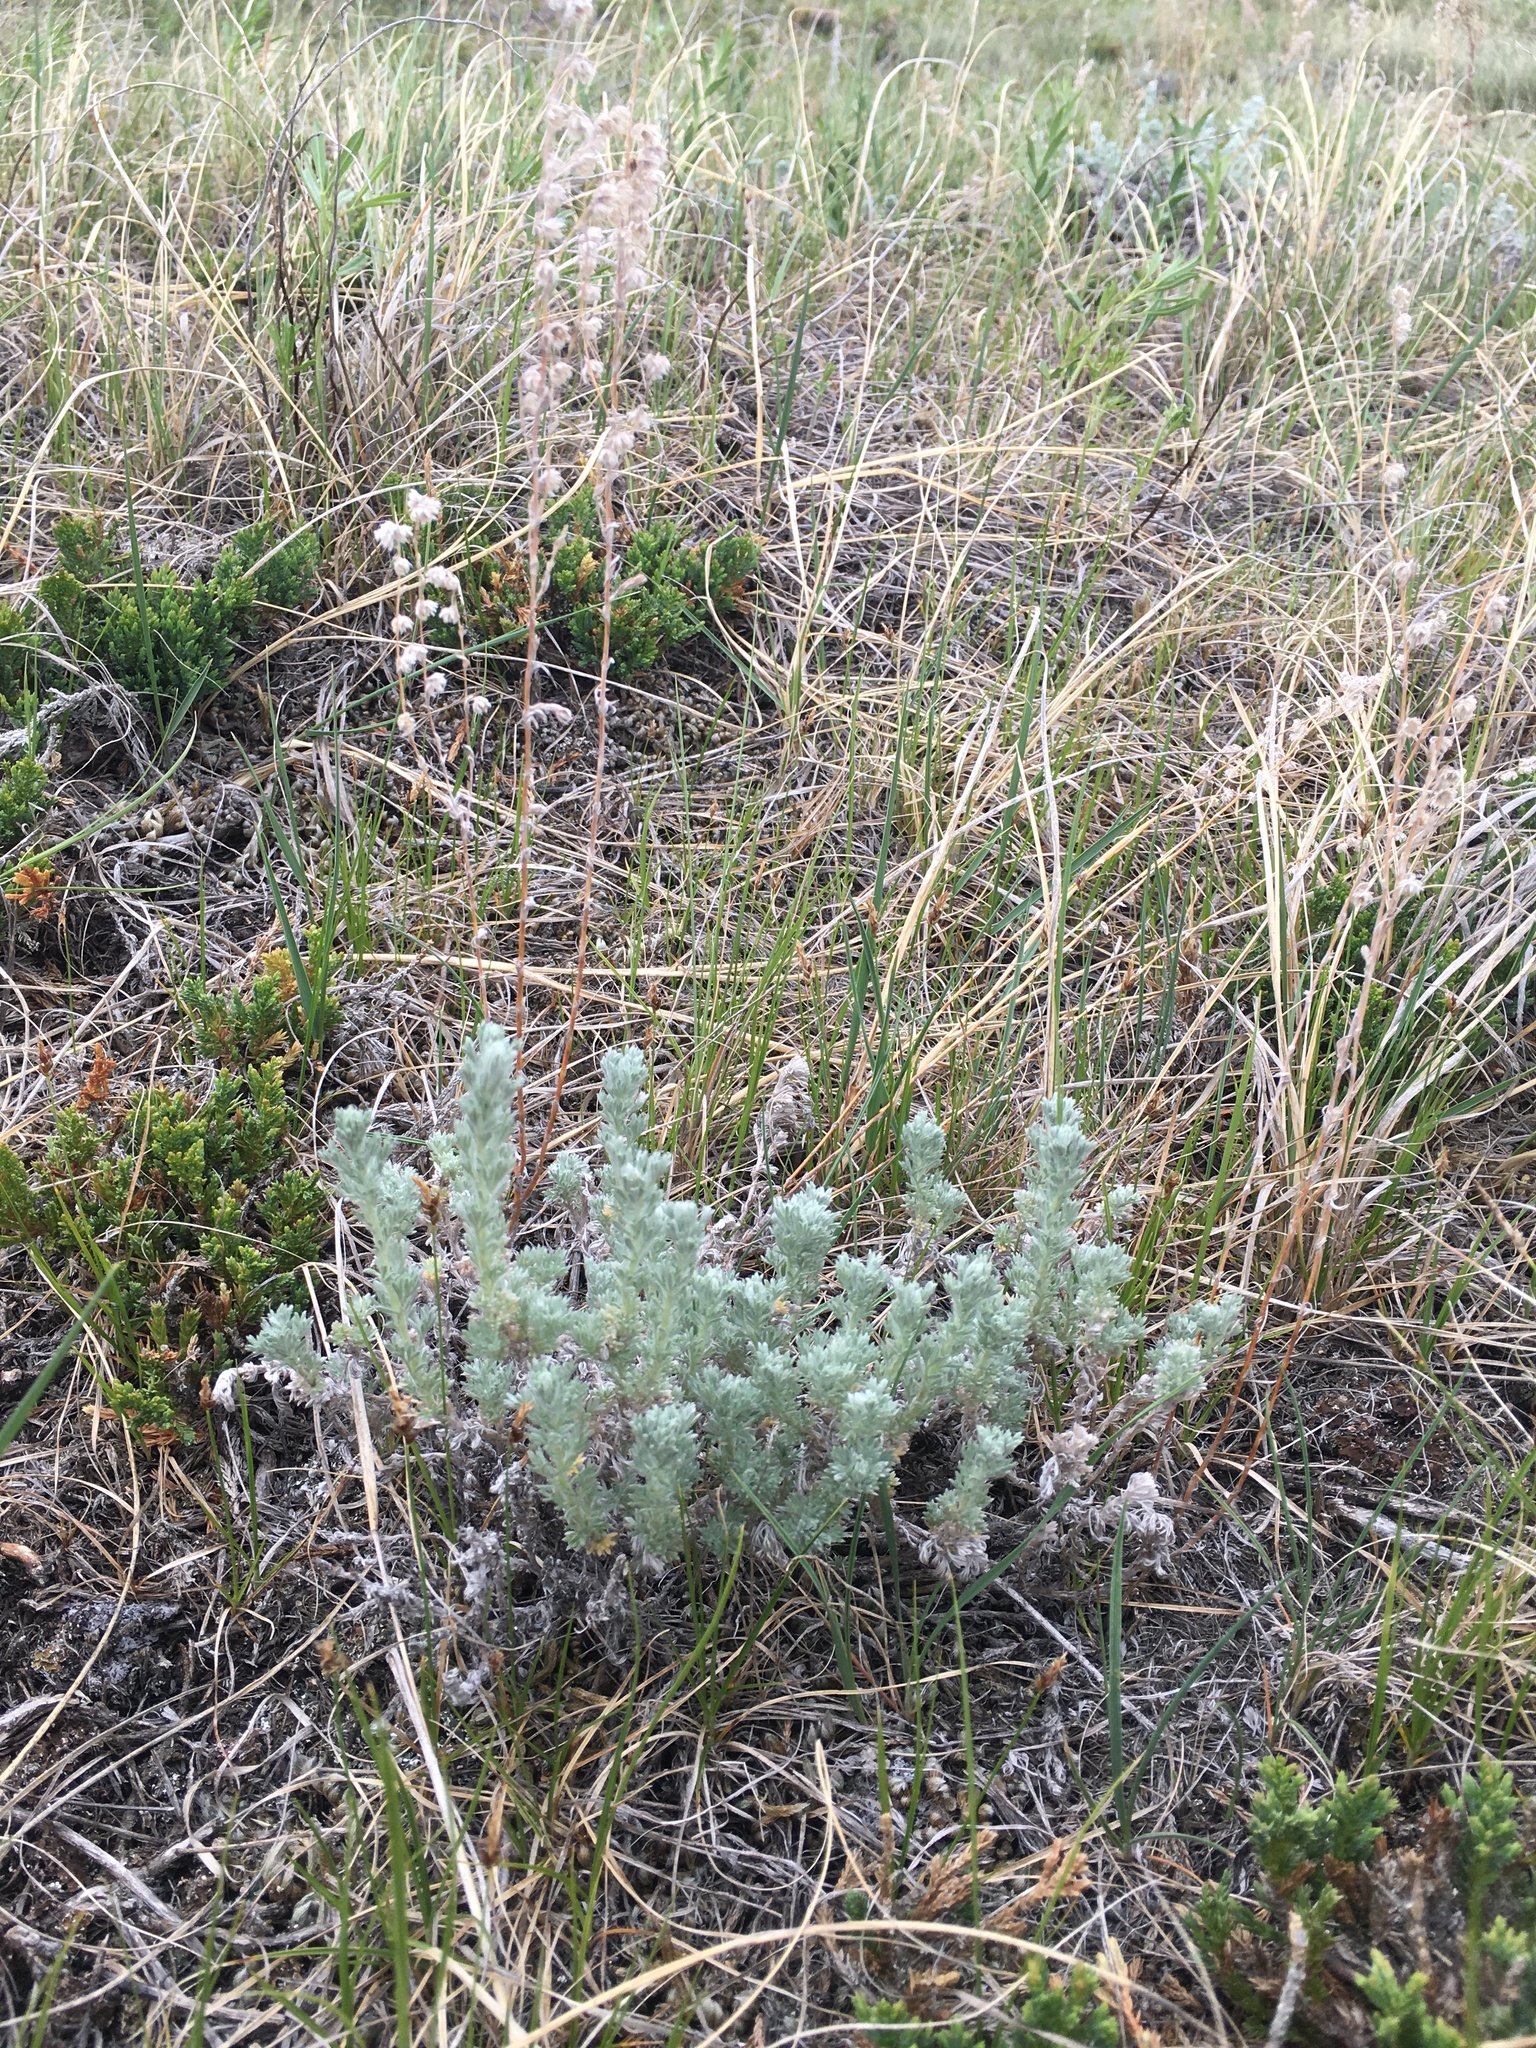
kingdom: Plantae
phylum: Tracheophyta
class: Magnoliopsida
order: Asterales
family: Asteraceae
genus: Artemisia
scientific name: Artemisia frigida
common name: Prairie sagewort
